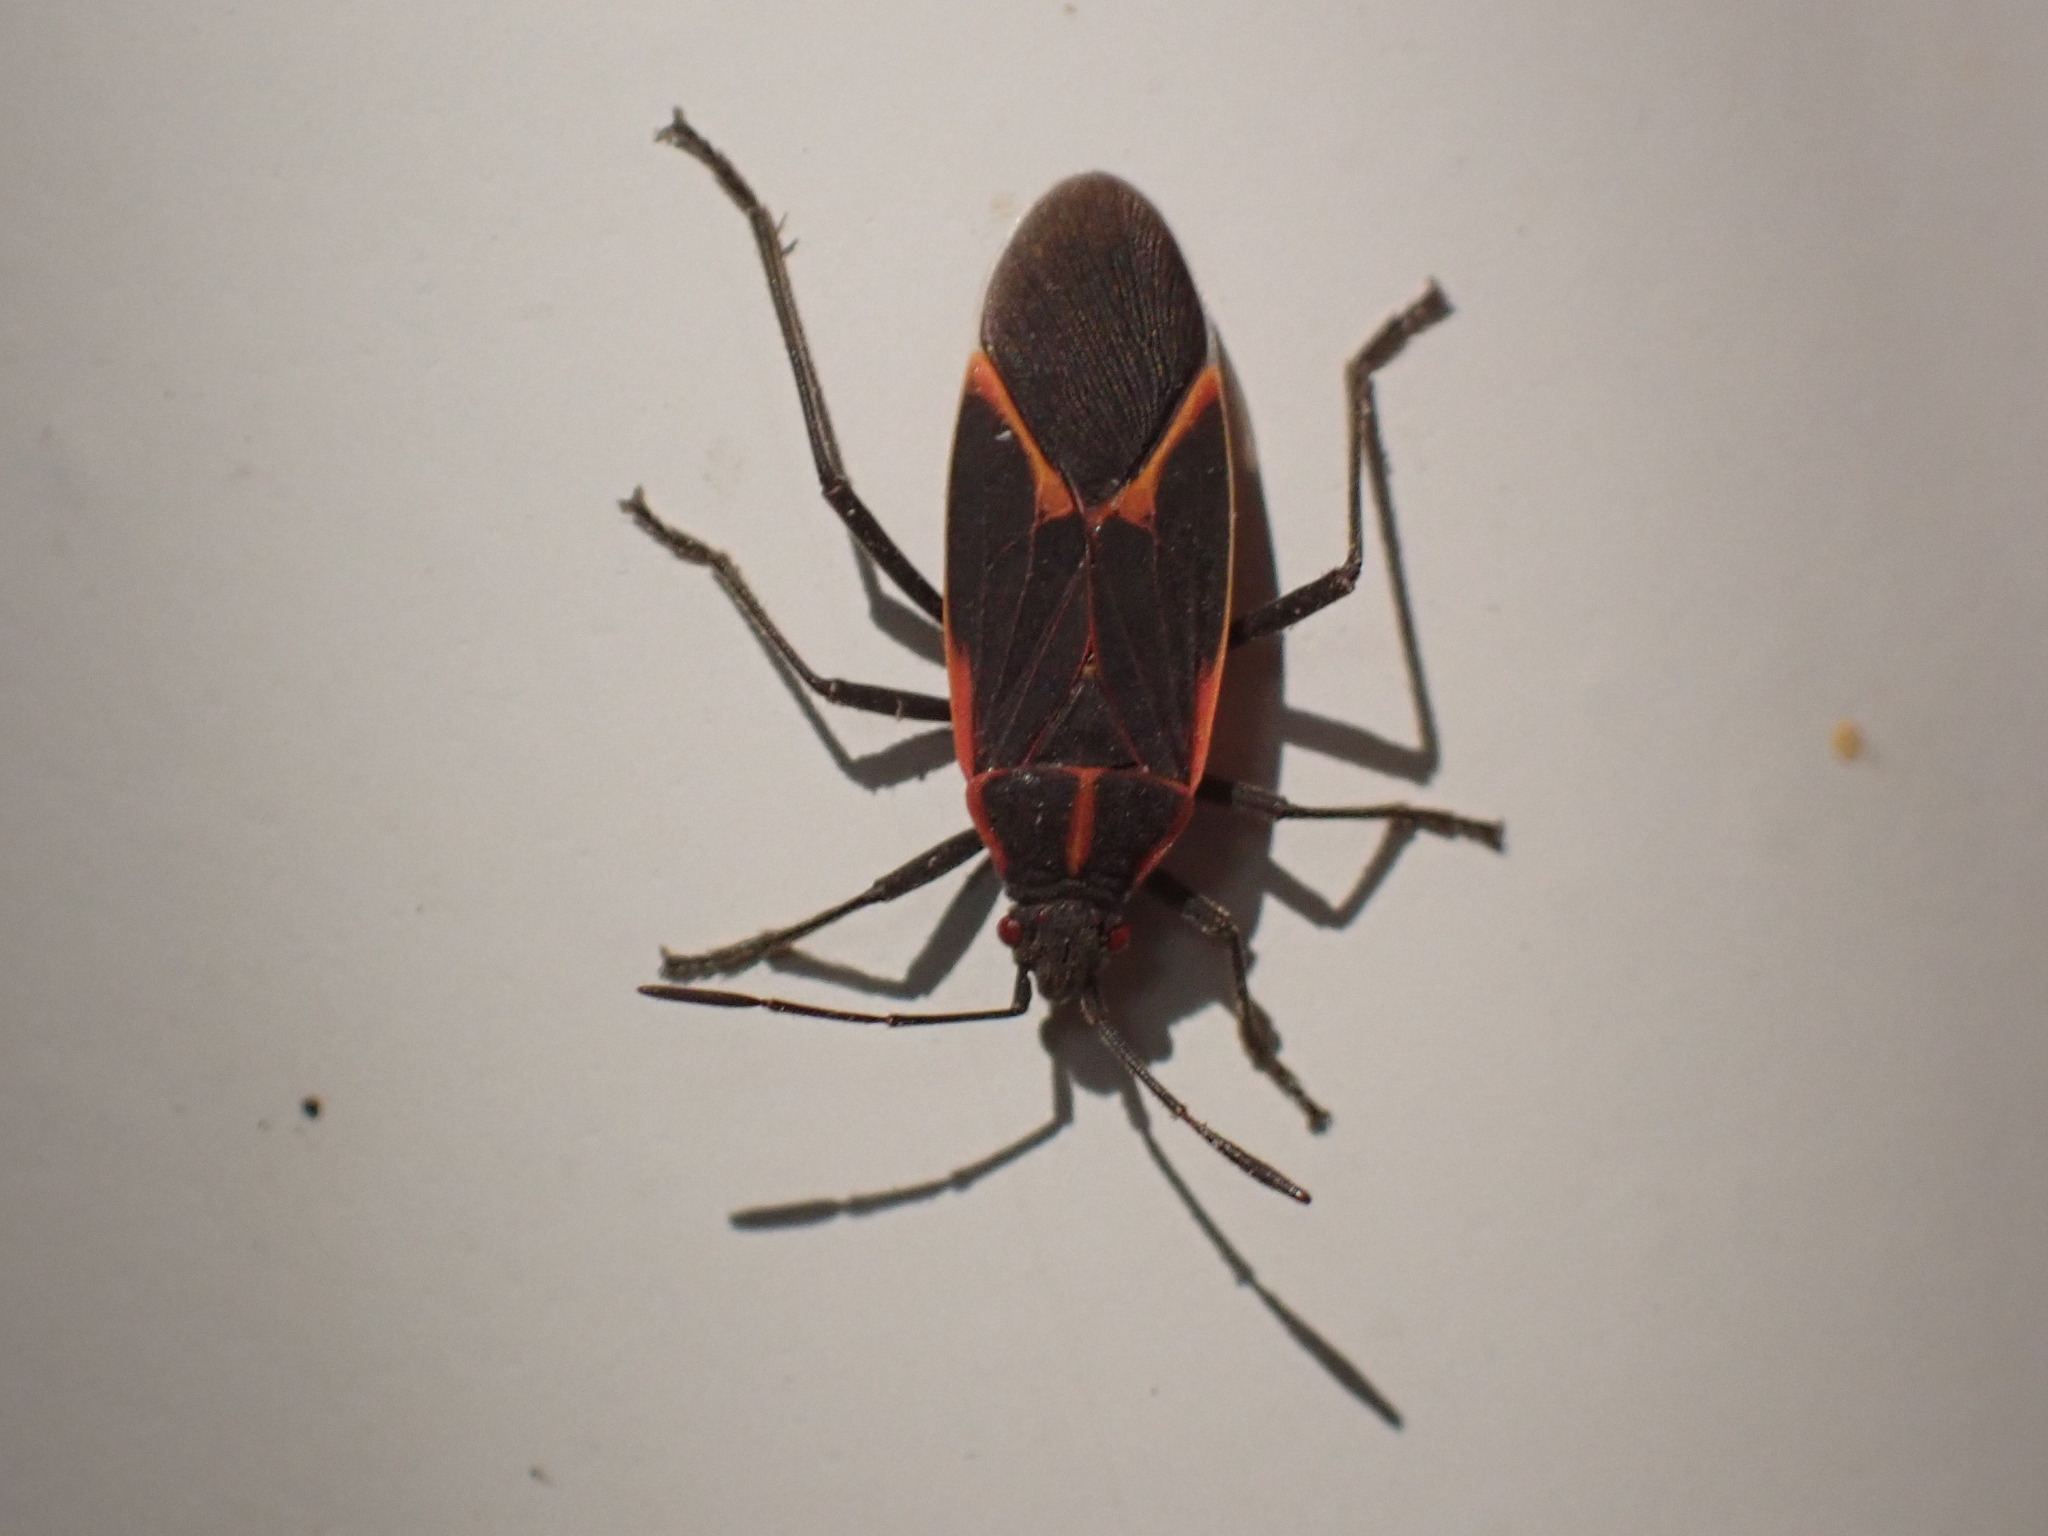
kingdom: Animalia
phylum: Arthropoda
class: Insecta
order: Hemiptera
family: Rhopalidae
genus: Boisea
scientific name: Boisea trivittata
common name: Boxelder bug
